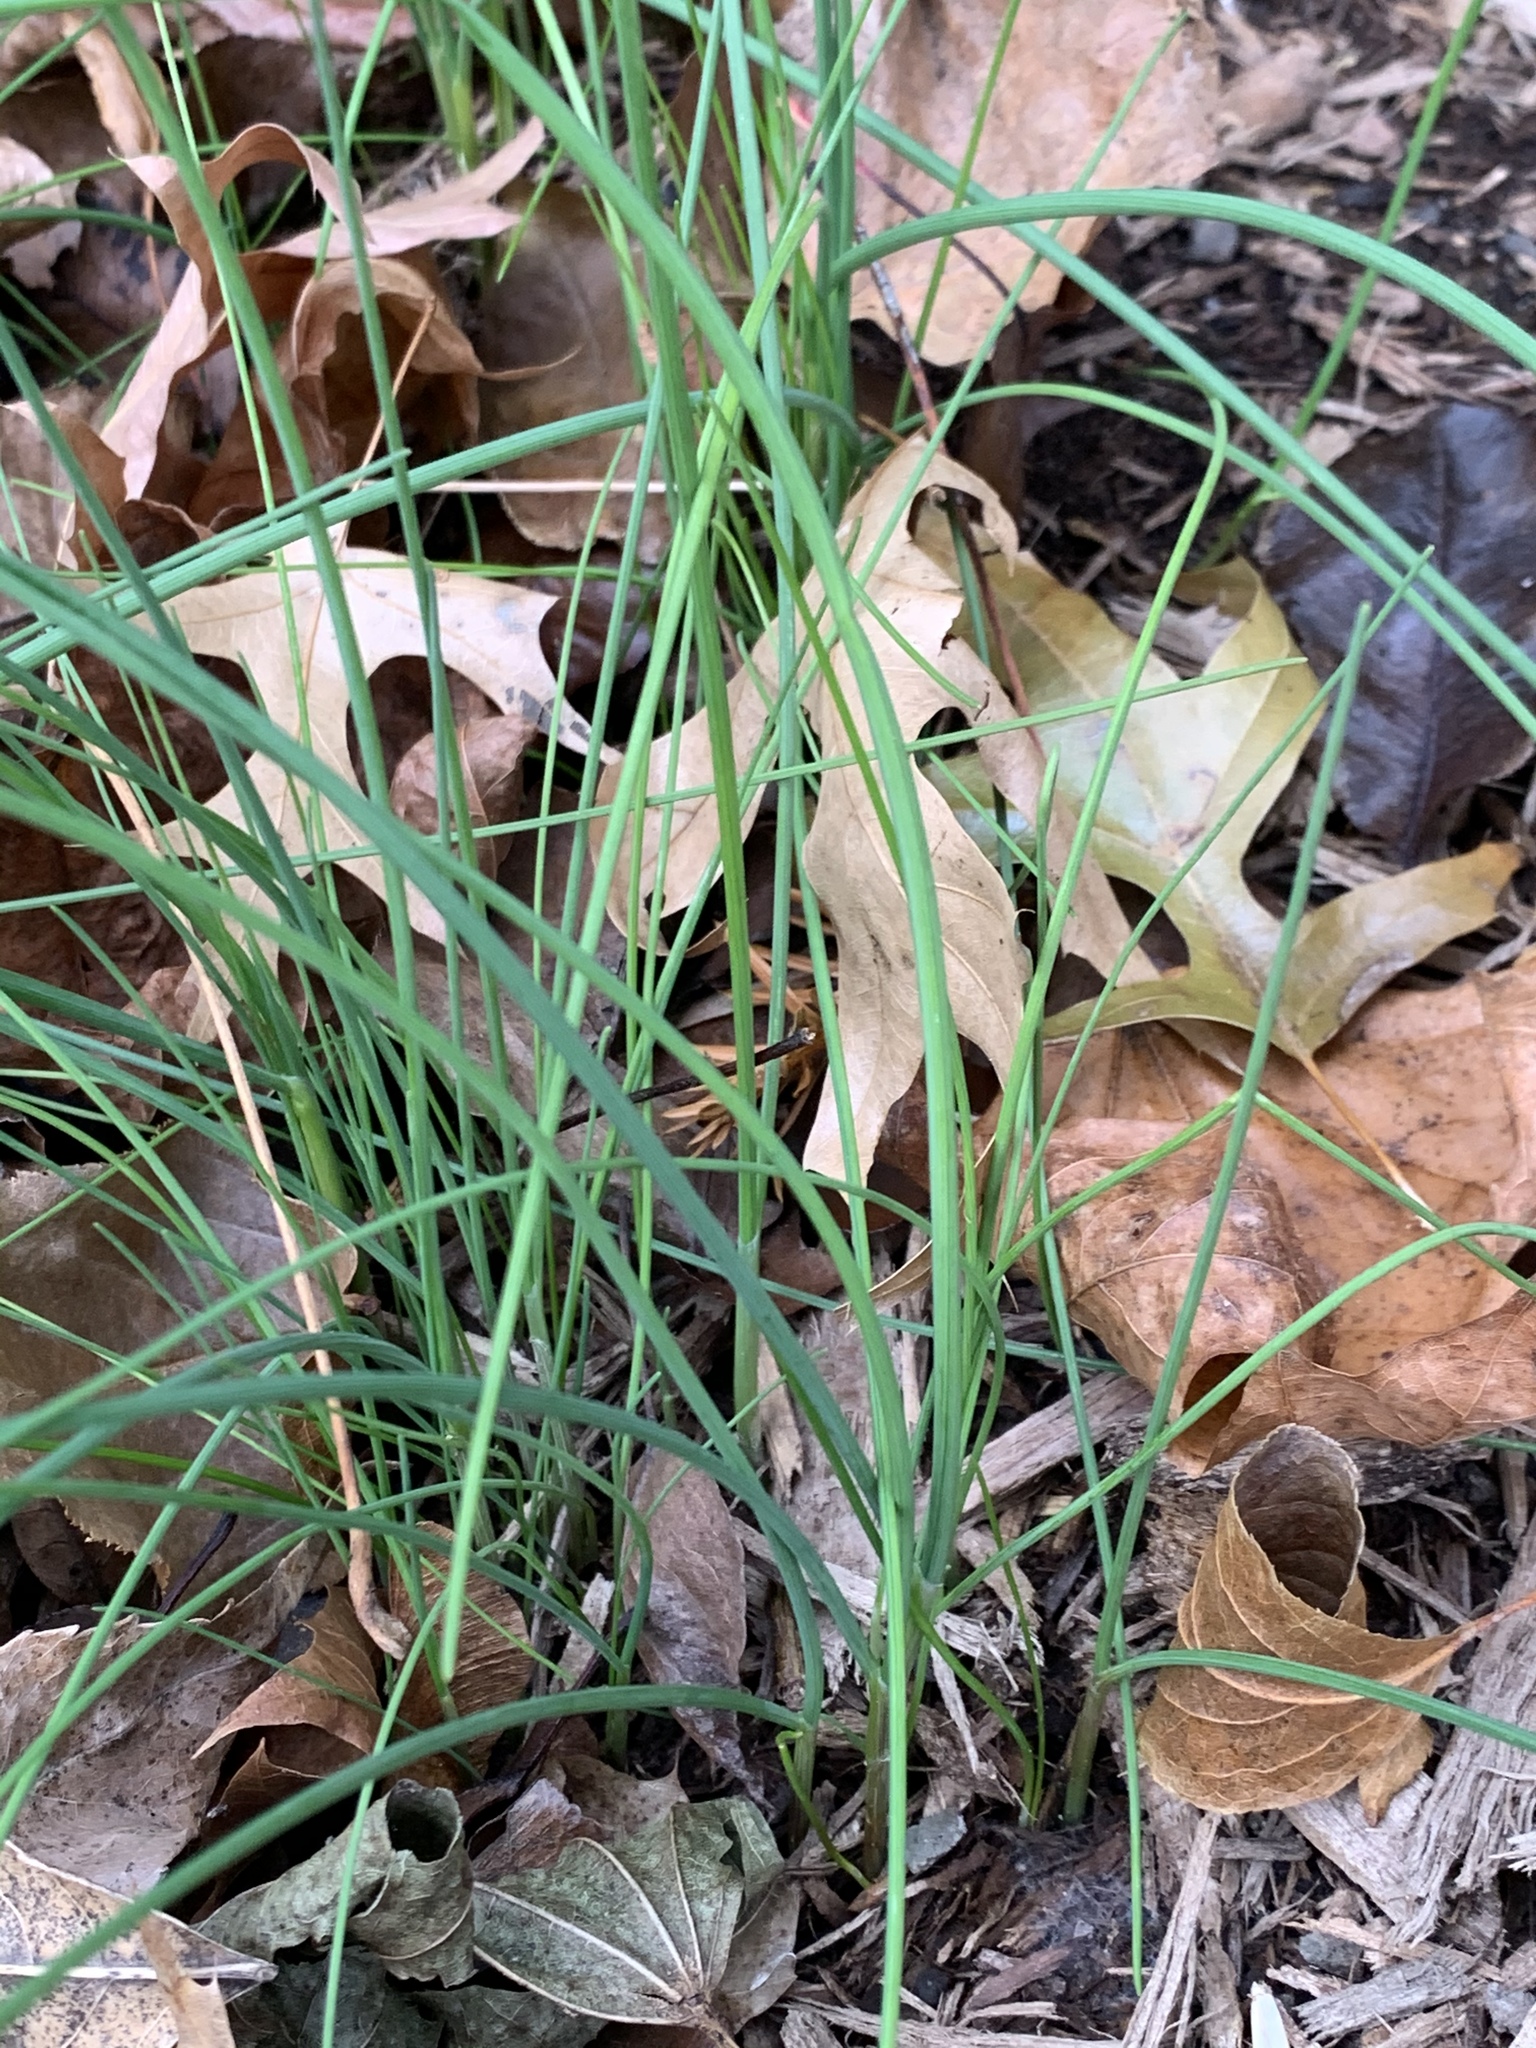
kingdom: Plantae
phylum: Tracheophyta
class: Liliopsida
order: Asparagales
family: Amaryllidaceae
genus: Allium
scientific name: Allium vineale
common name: Crow garlic
